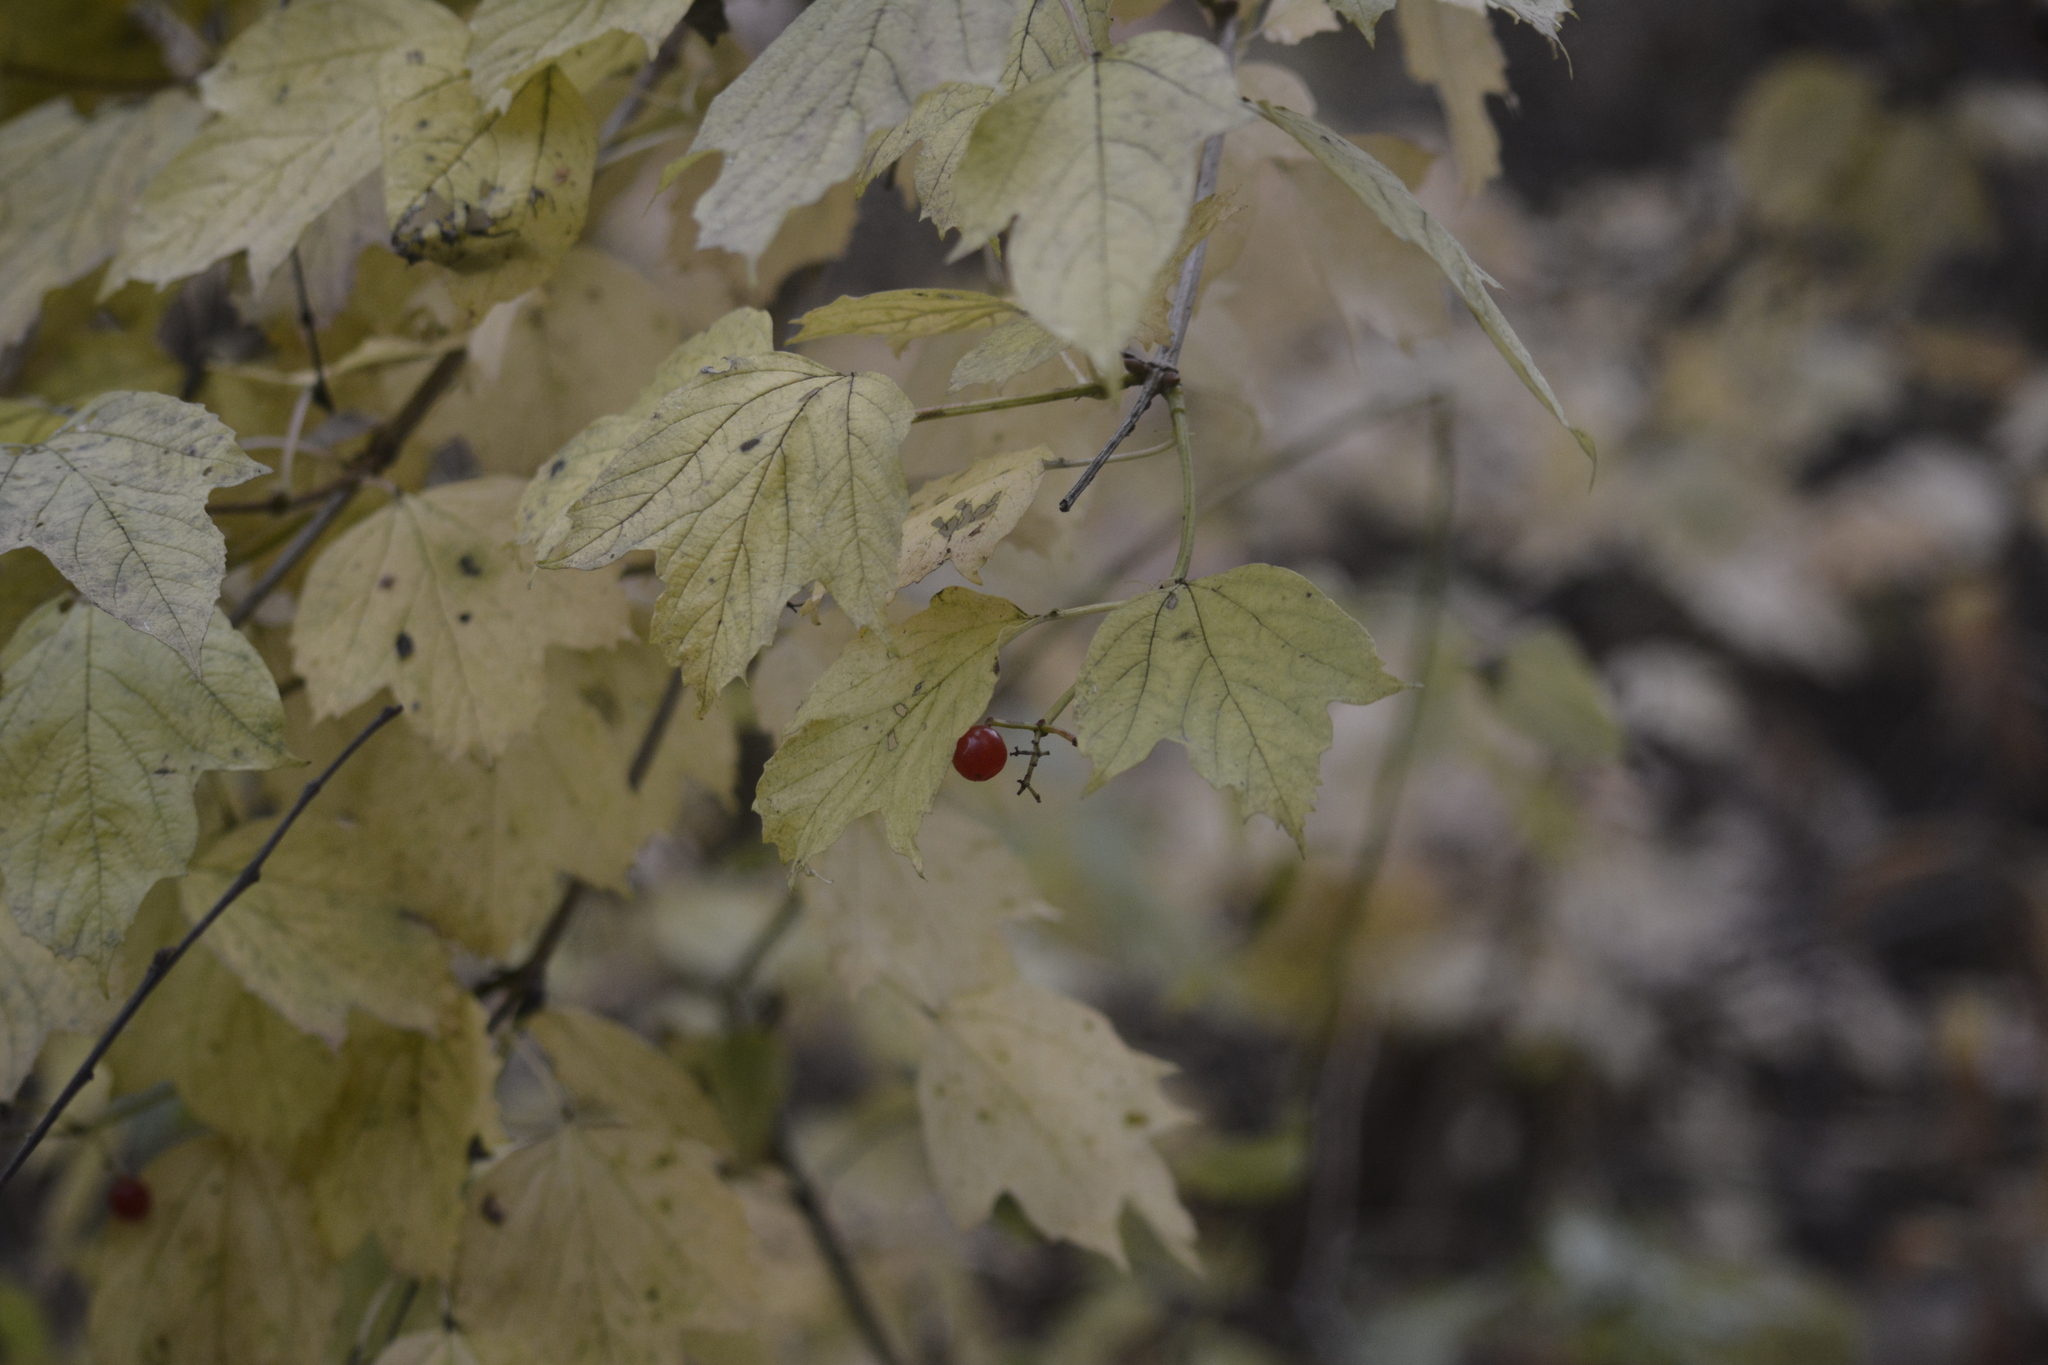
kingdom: Plantae
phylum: Tracheophyta
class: Magnoliopsida
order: Dipsacales
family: Viburnaceae
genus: Viburnum
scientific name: Viburnum opulus
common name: Guelder-rose
